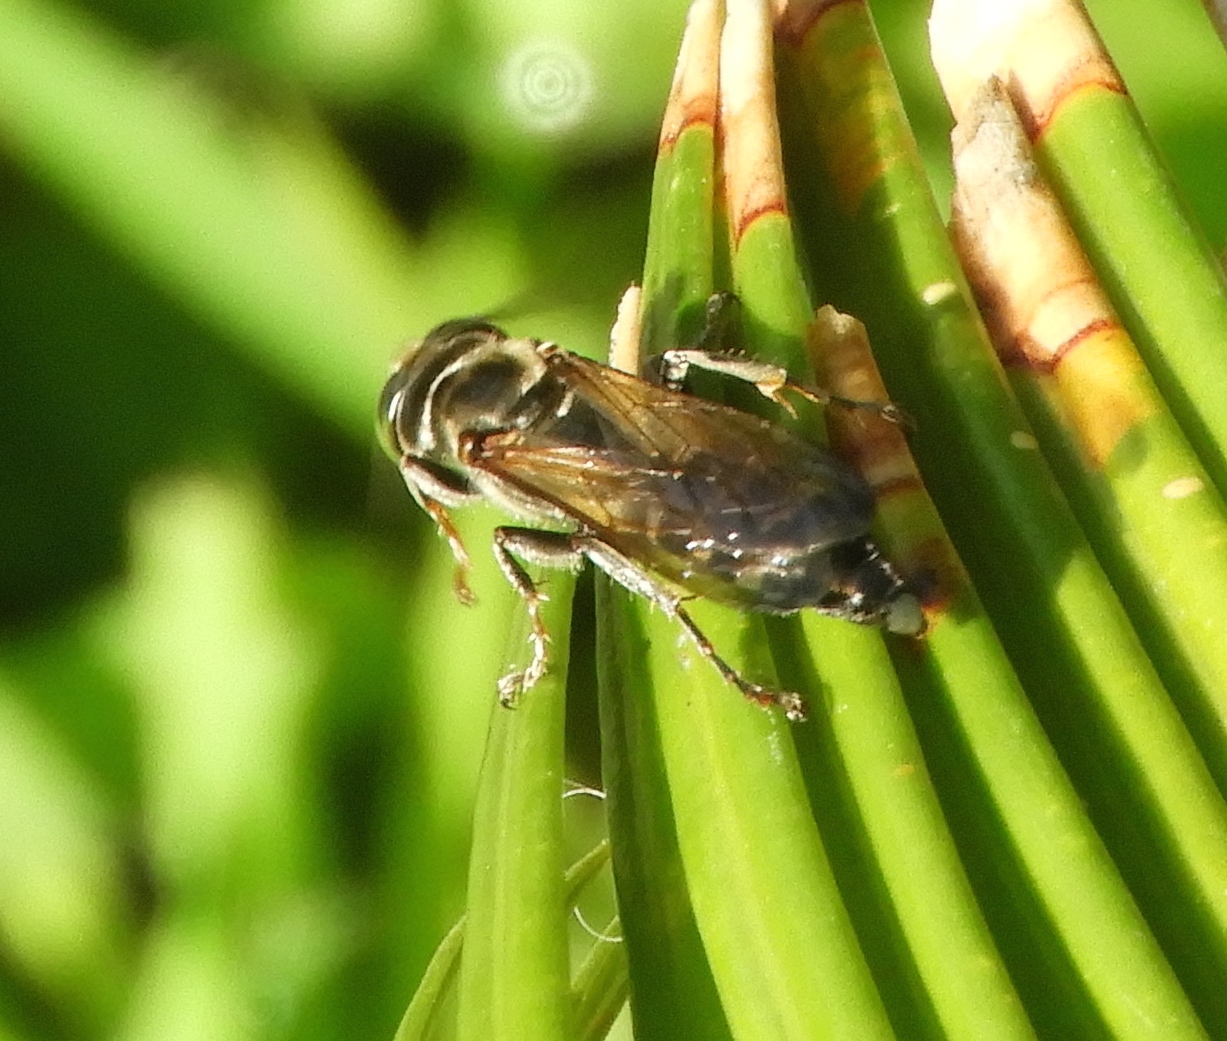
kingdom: Animalia
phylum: Arthropoda
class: Insecta
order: Hymenoptera
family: Crabronidae
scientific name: Crabronidae
